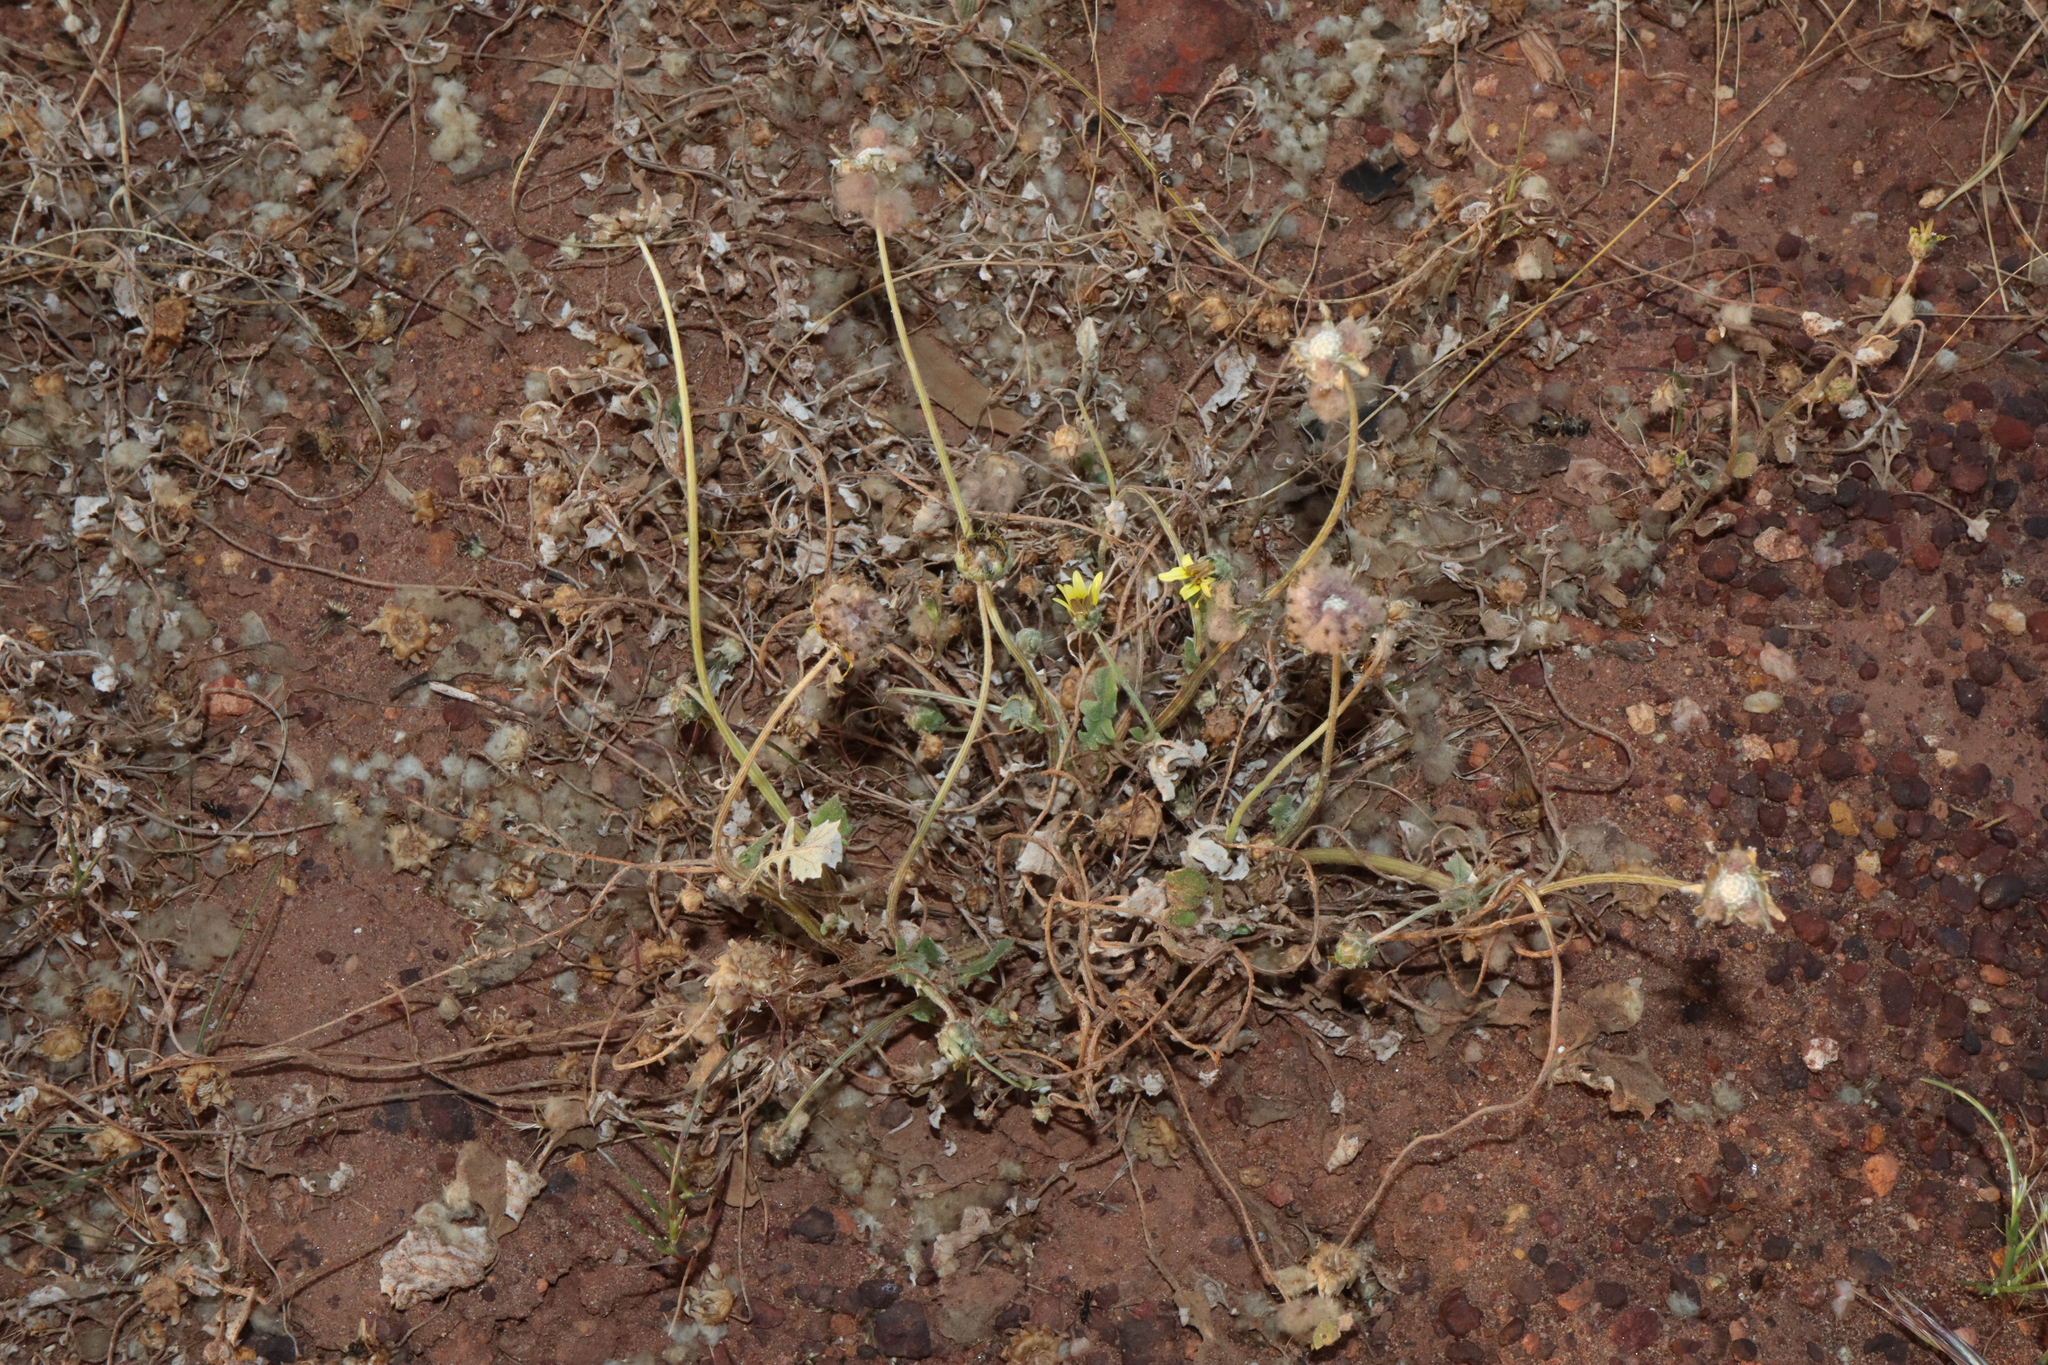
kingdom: Plantae
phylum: Tracheophyta
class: Magnoliopsida
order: Asterales
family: Asteraceae
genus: Arctotheca
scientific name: Arctotheca calendula
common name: Capeweed
